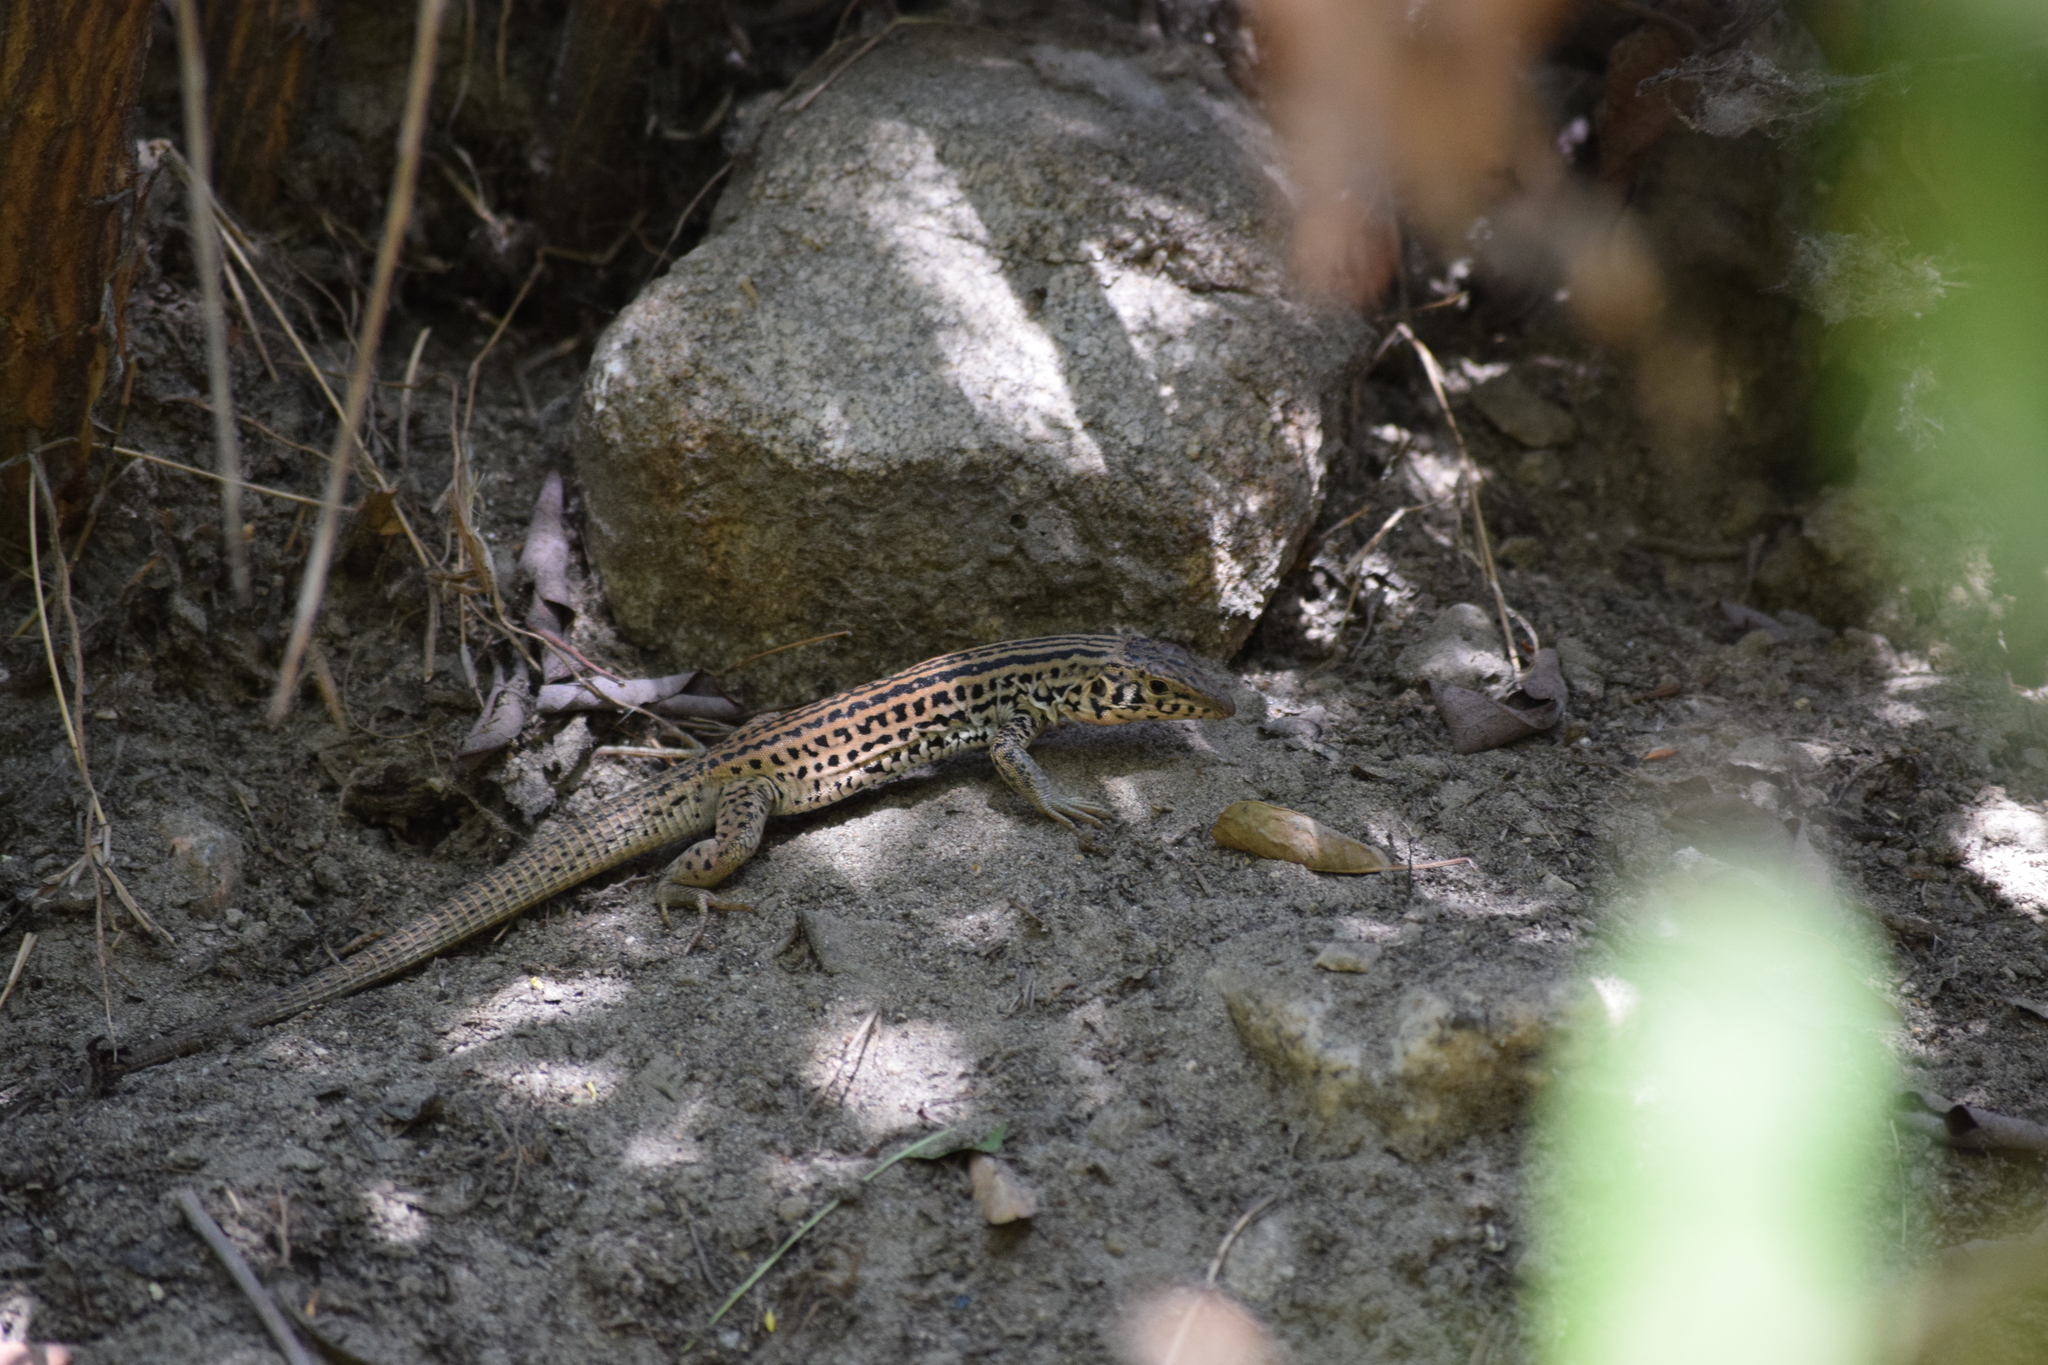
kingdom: Animalia
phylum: Chordata
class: Squamata
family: Teiidae
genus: Aspidoscelis
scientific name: Aspidoscelis tigris
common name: Tiger whiptail
